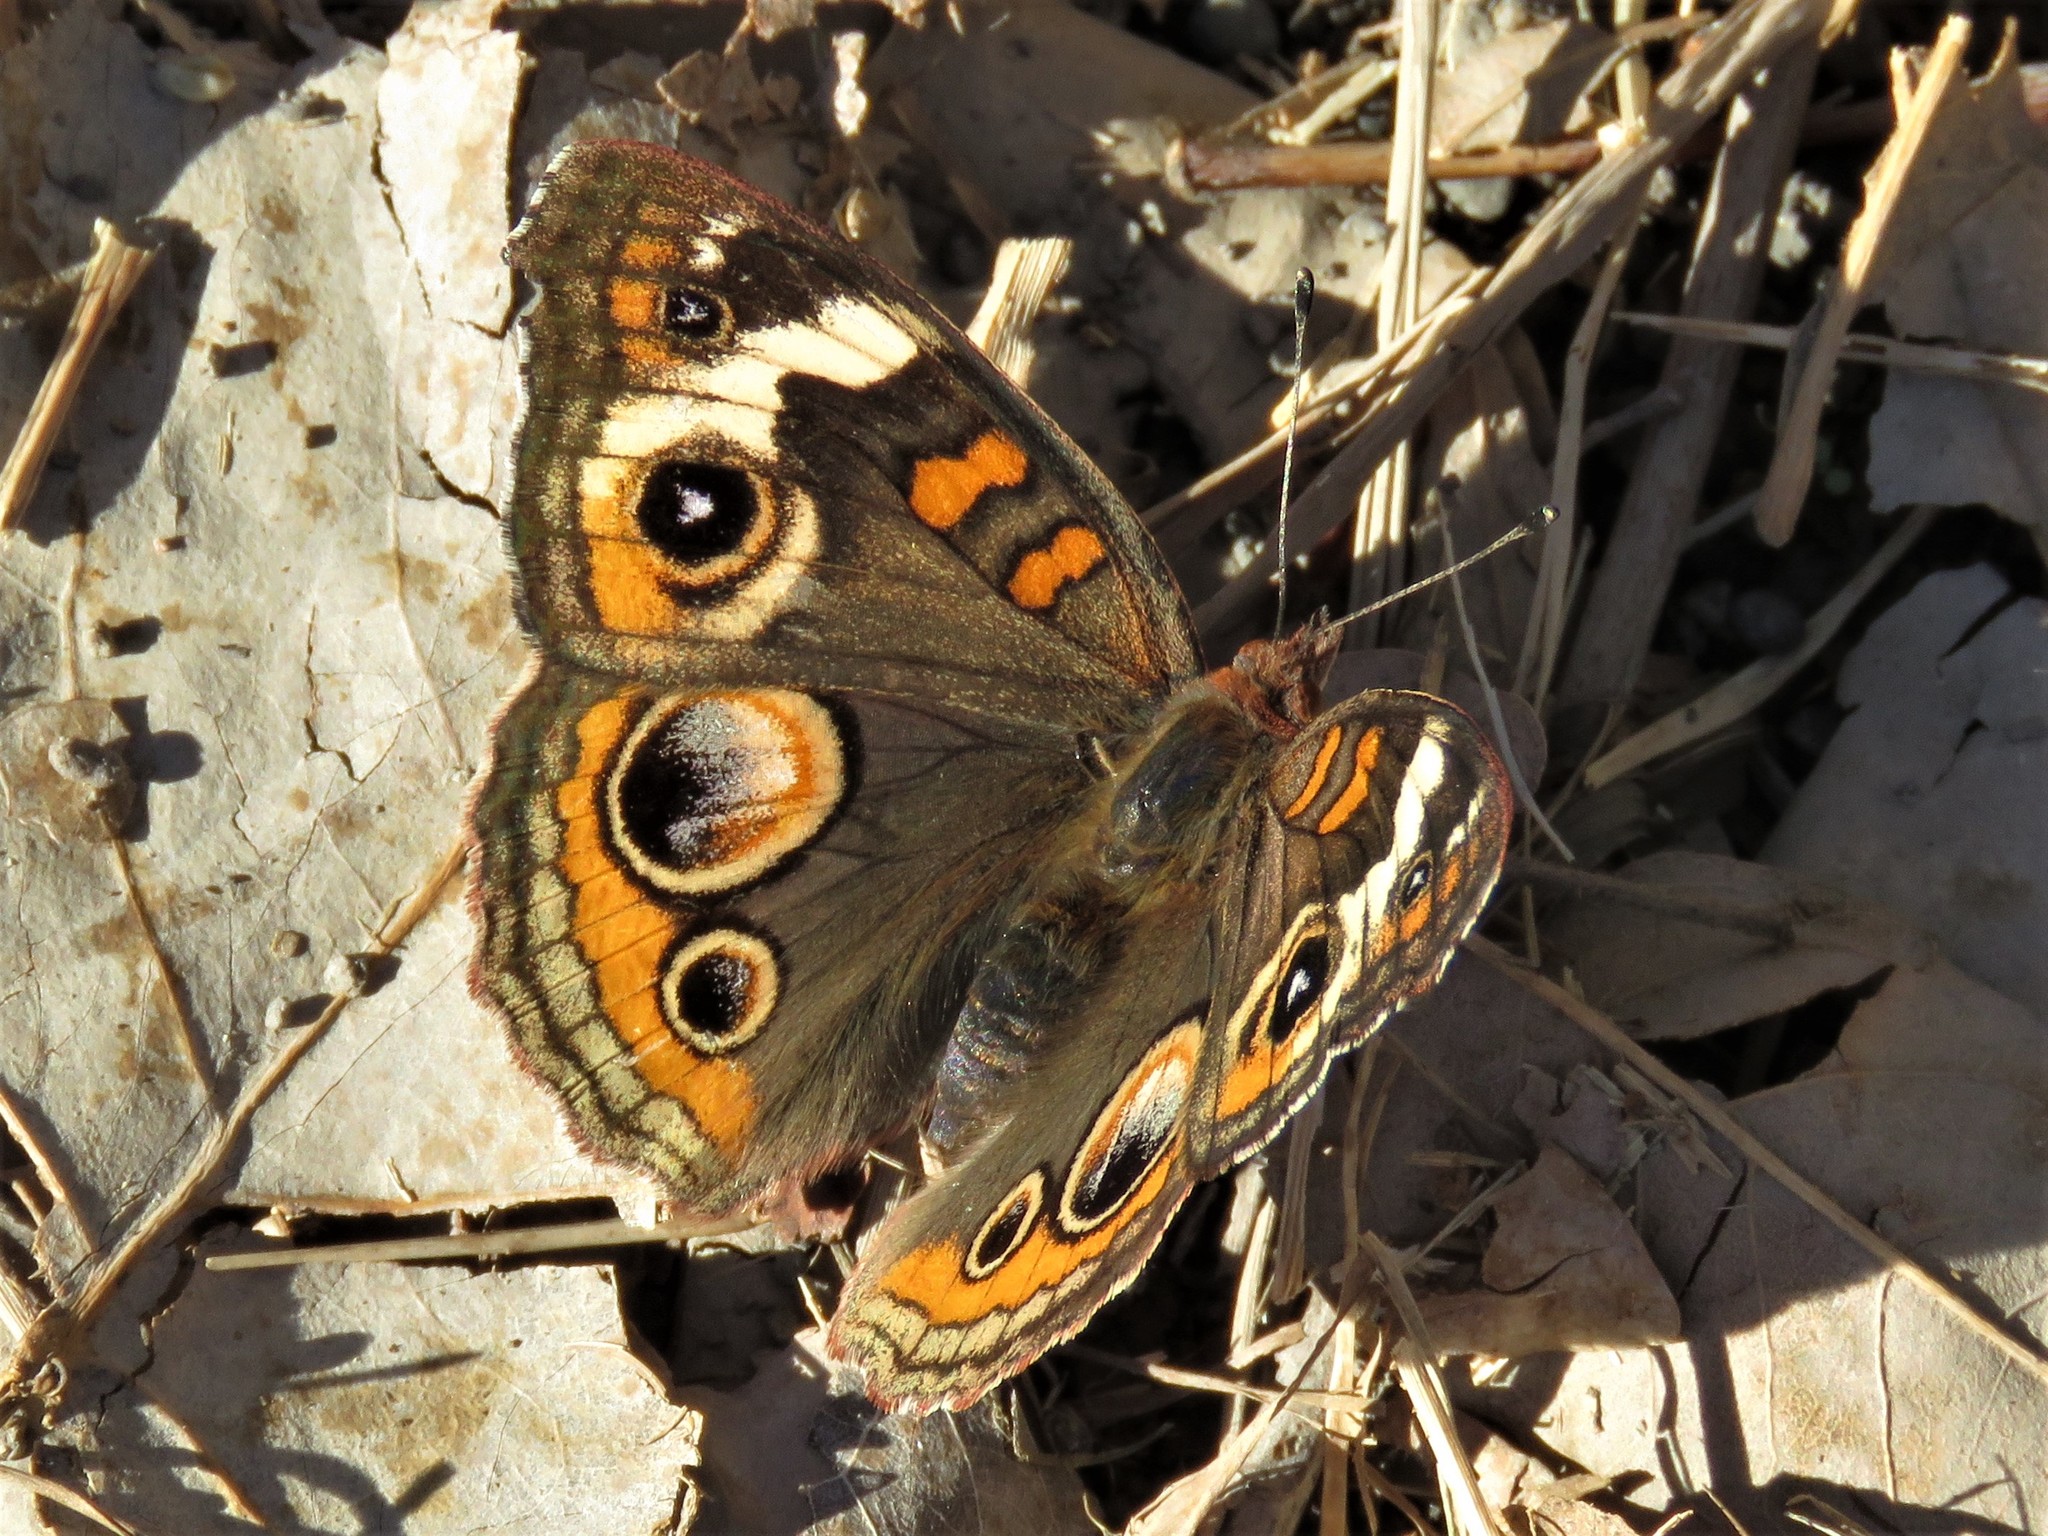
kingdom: Animalia
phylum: Arthropoda
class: Insecta
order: Lepidoptera
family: Nymphalidae
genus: Junonia
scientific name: Junonia coenia
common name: Common buckeye
